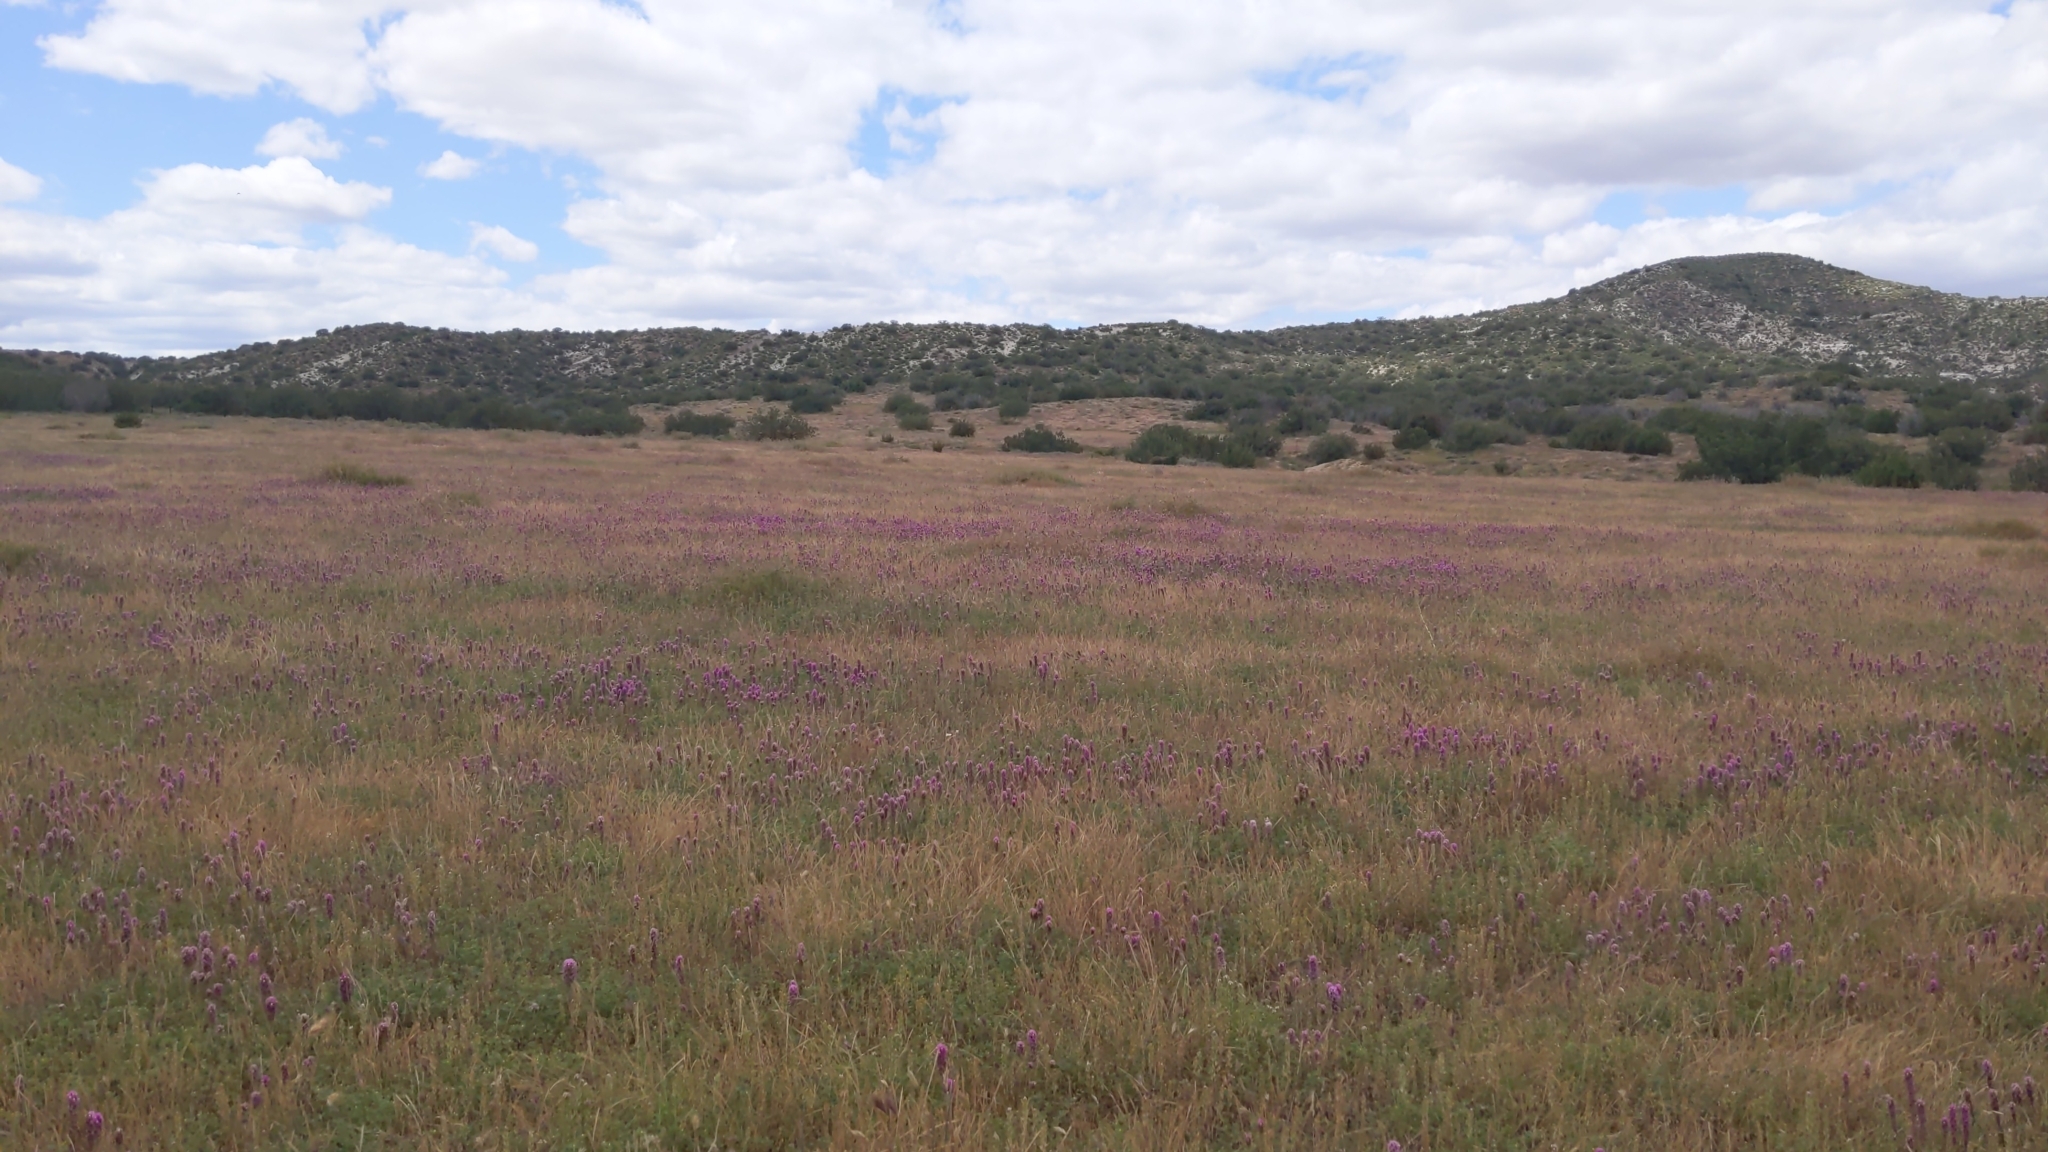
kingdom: Plantae
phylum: Tracheophyta
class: Magnoliopsida
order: Lamiales
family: Orobanchaceae
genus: Castilleja
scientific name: Castilleja exserta
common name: Purple owl-clover
